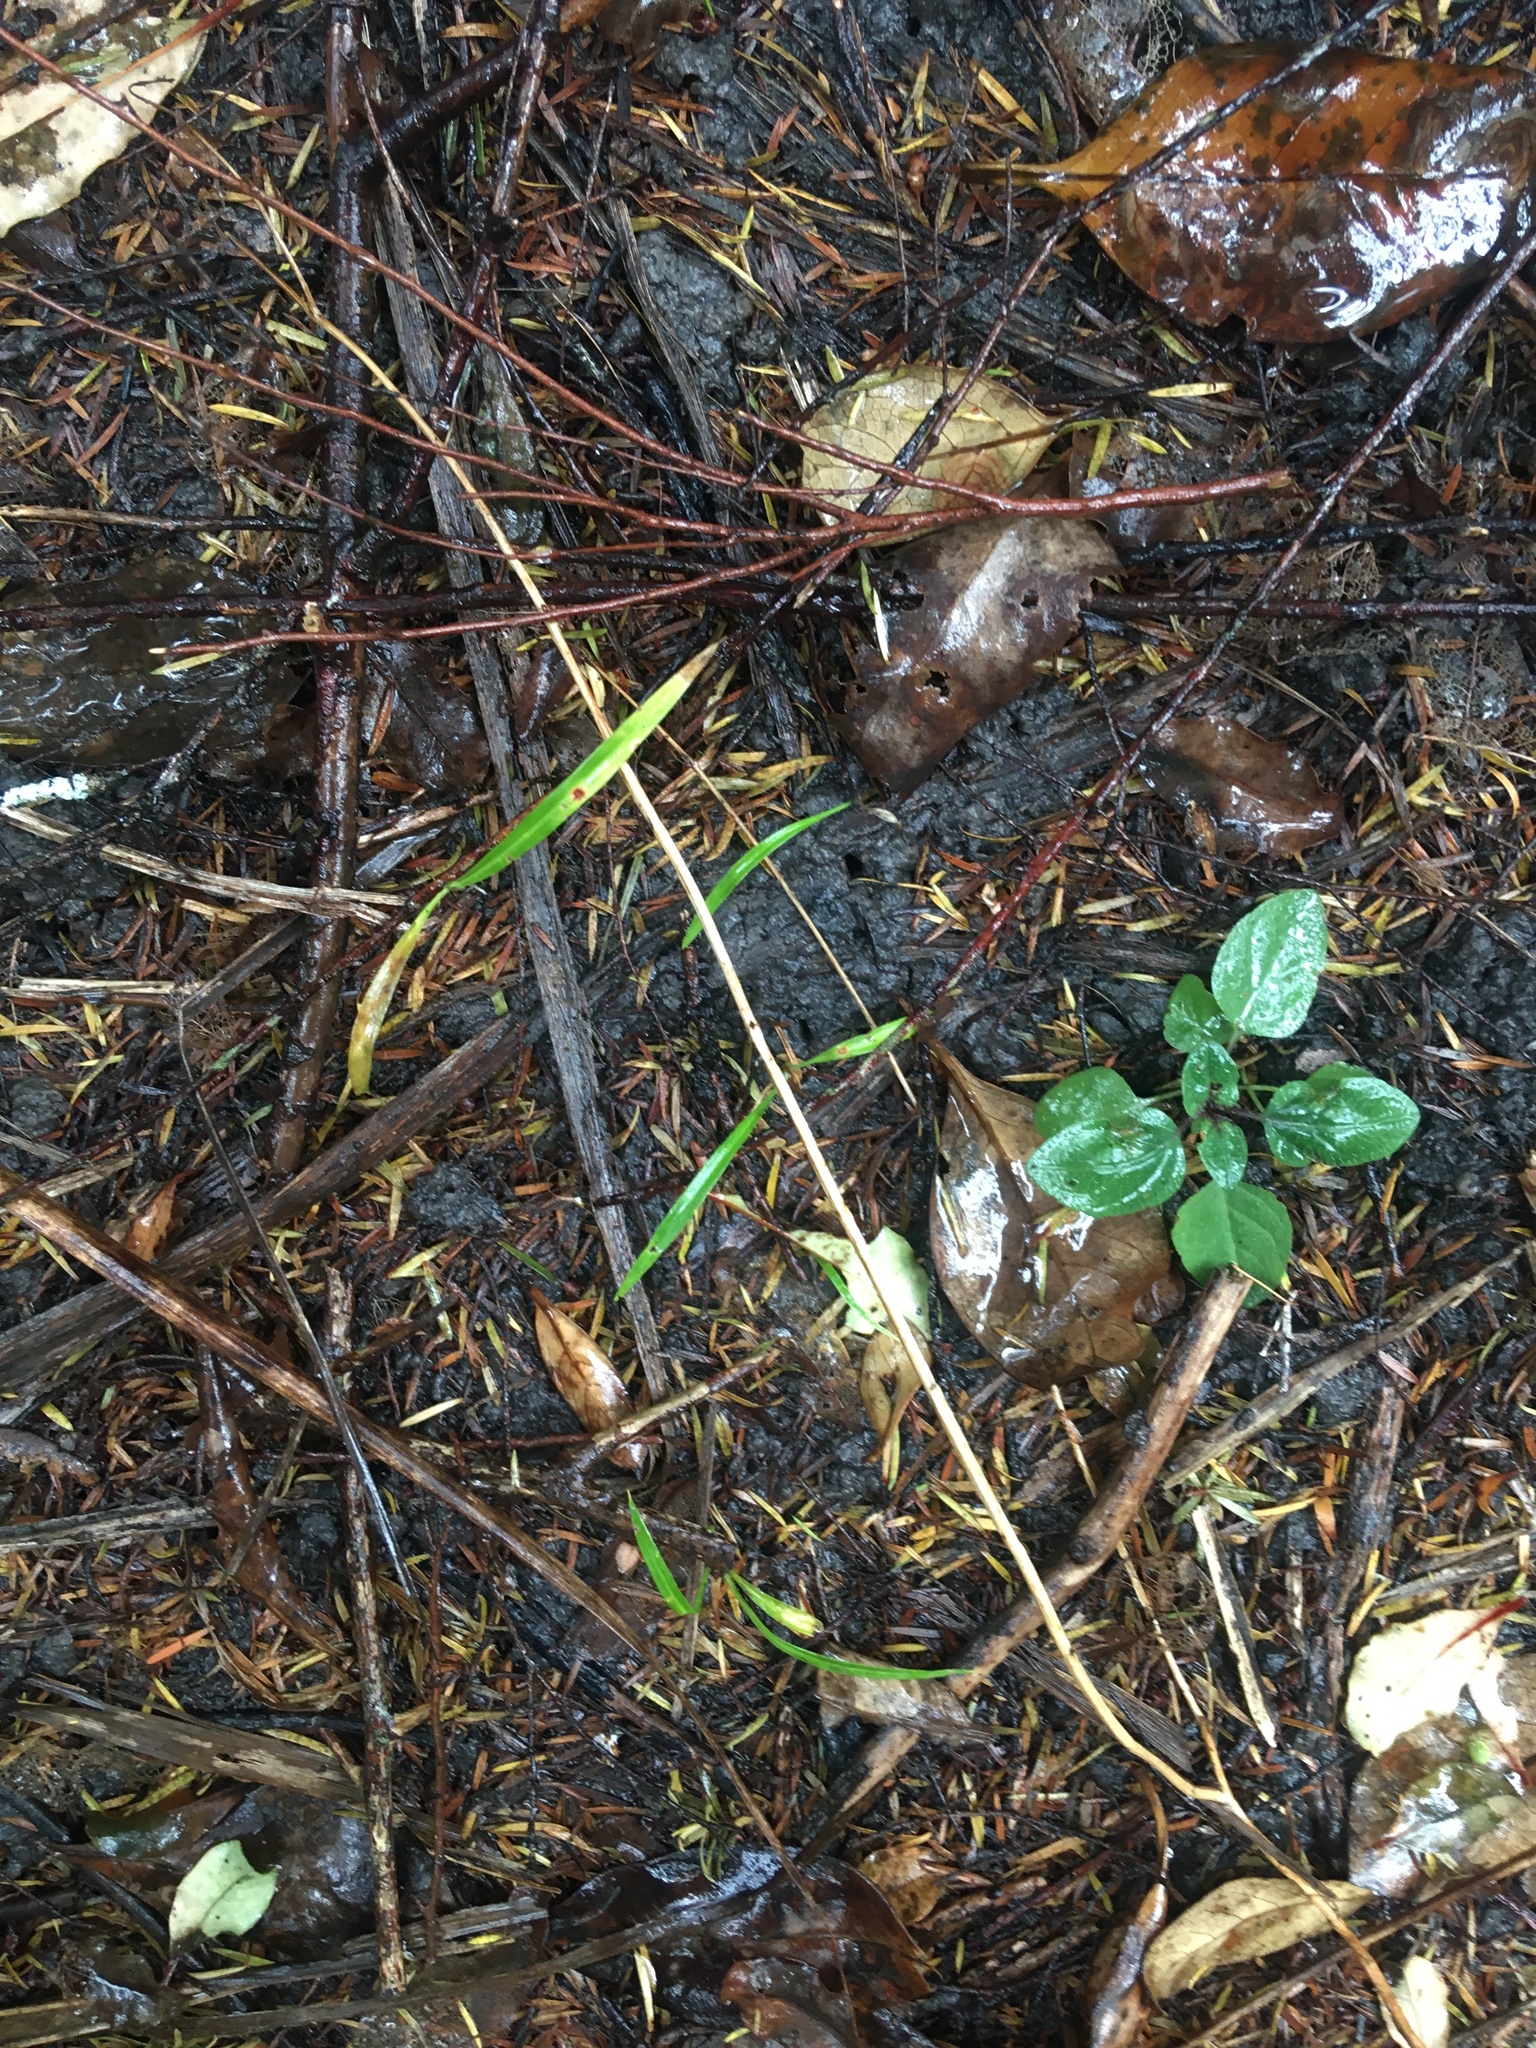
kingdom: Plantae
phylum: Tracheophyta
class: Liliopsida
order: Asparagales
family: Asparagaceae
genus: Cordyline
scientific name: Cordyline australis
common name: Cabbage-palm
